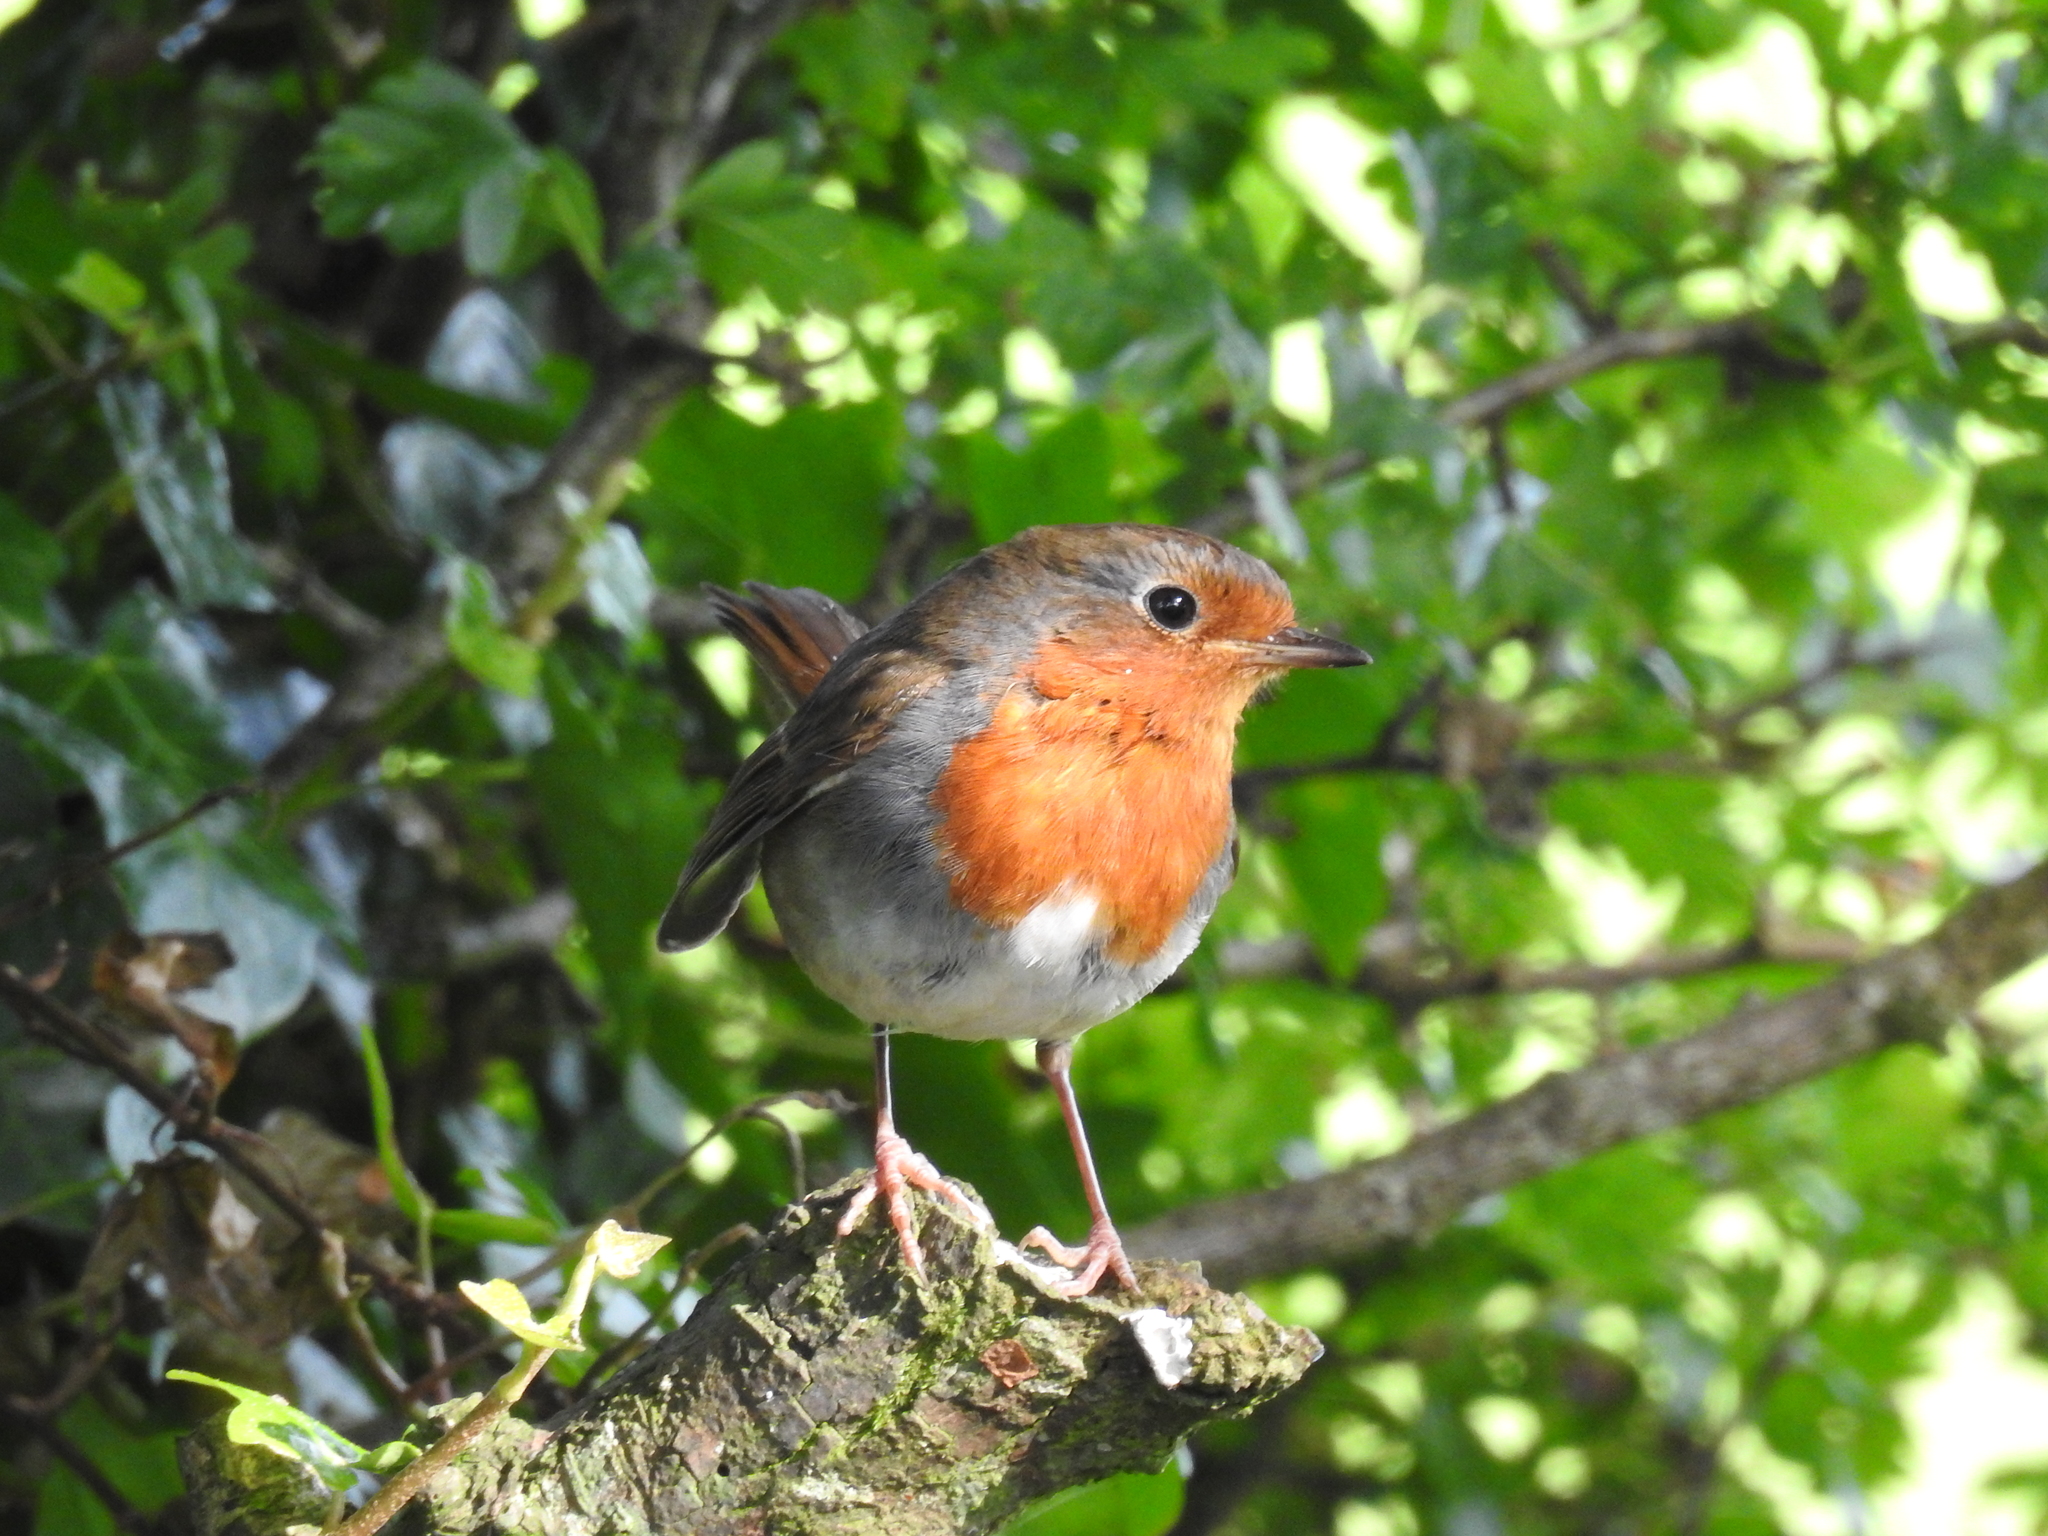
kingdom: Animalia
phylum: Chordata
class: Aves
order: Passeriformes
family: Muscicapidae
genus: Erithacus
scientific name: Erithacus rubecula
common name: European robin
